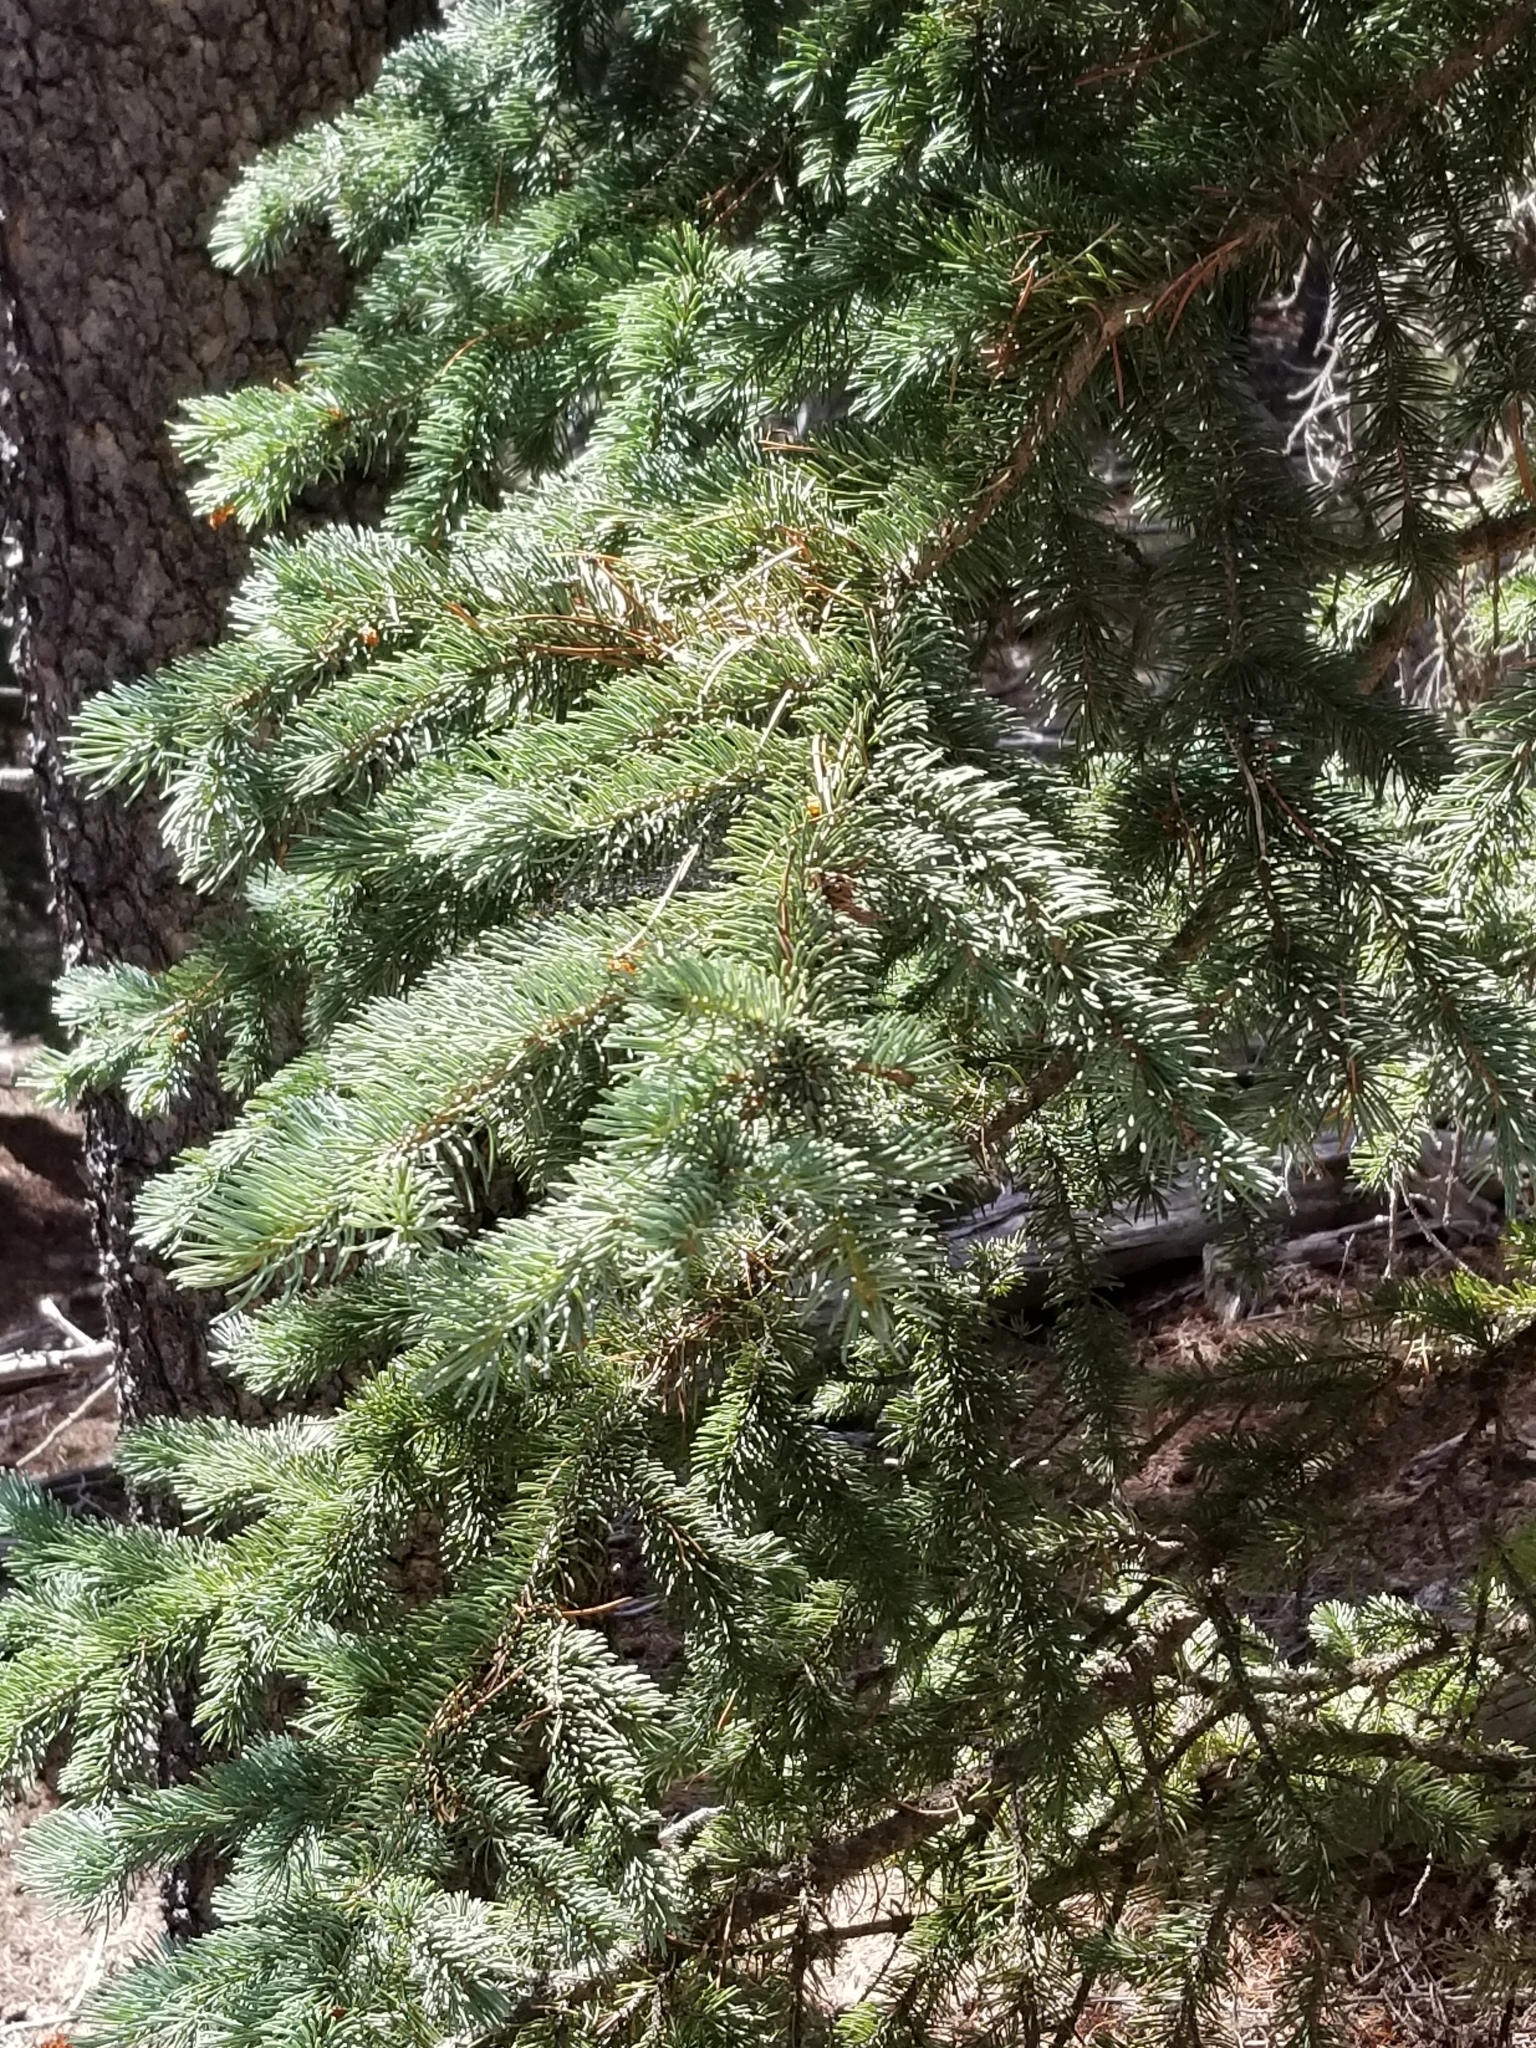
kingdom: Plantae
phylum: Tracheophyta
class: Pinopsida
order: Pinales
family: Pinaceae
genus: Picea
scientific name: Picea engelmannii
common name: Engelmann spruce
